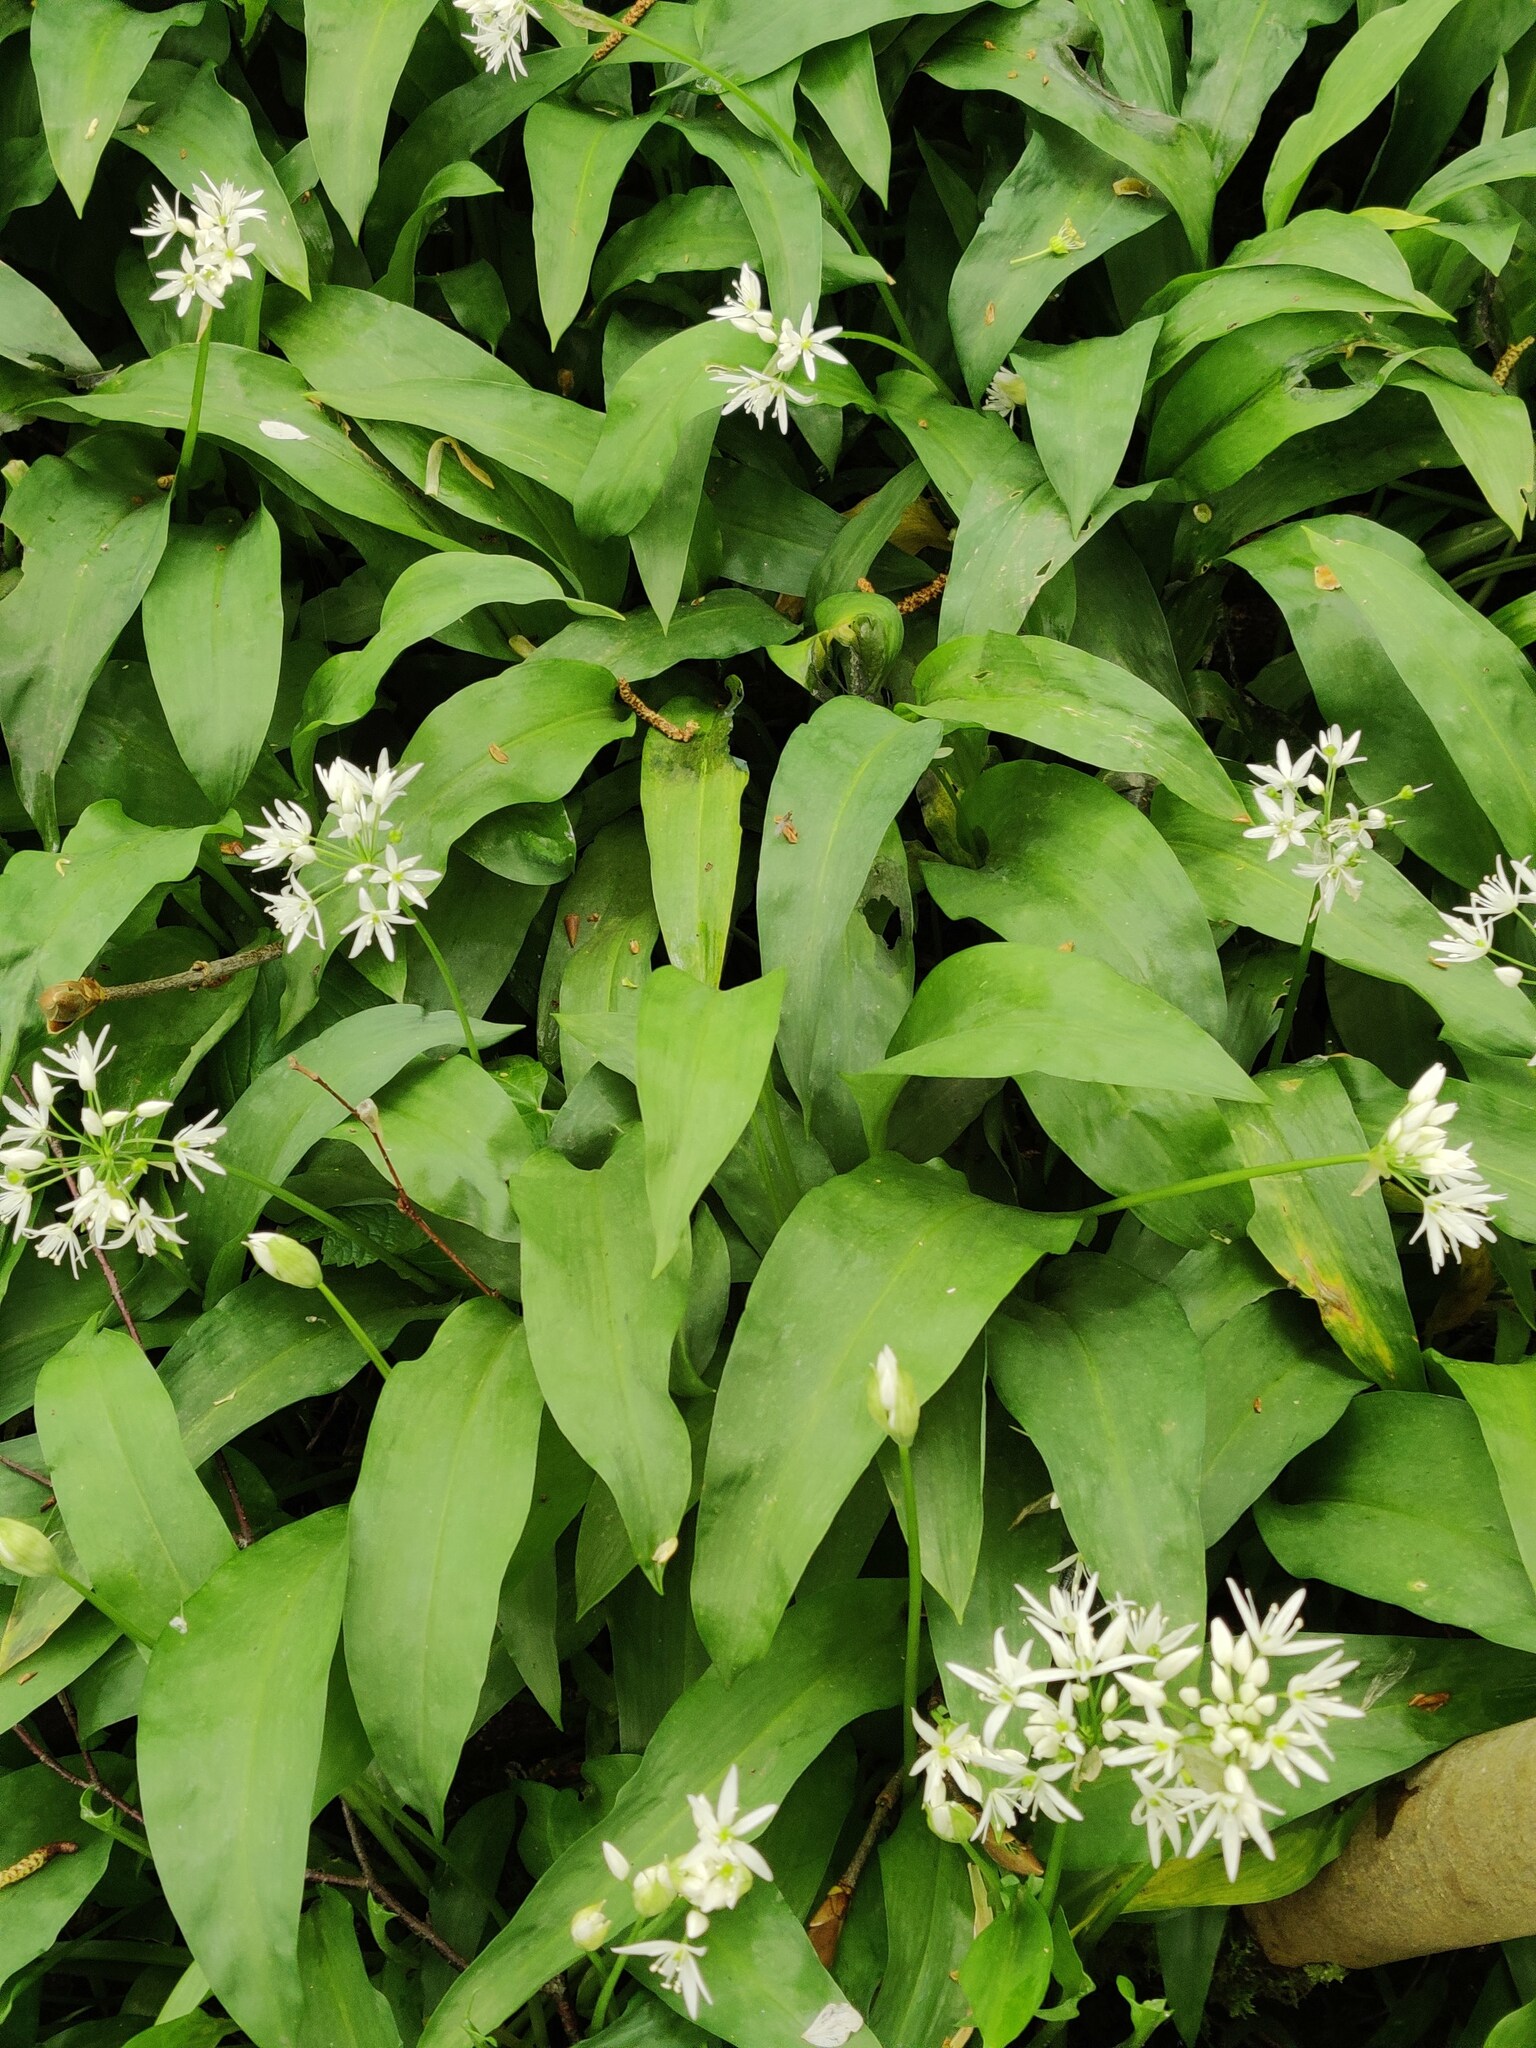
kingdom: Plantae
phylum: Tracheophyta
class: Liliopsida
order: Asparagales
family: Amaryllidaceae
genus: Allium
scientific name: Allium ursinum
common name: Ramsons
